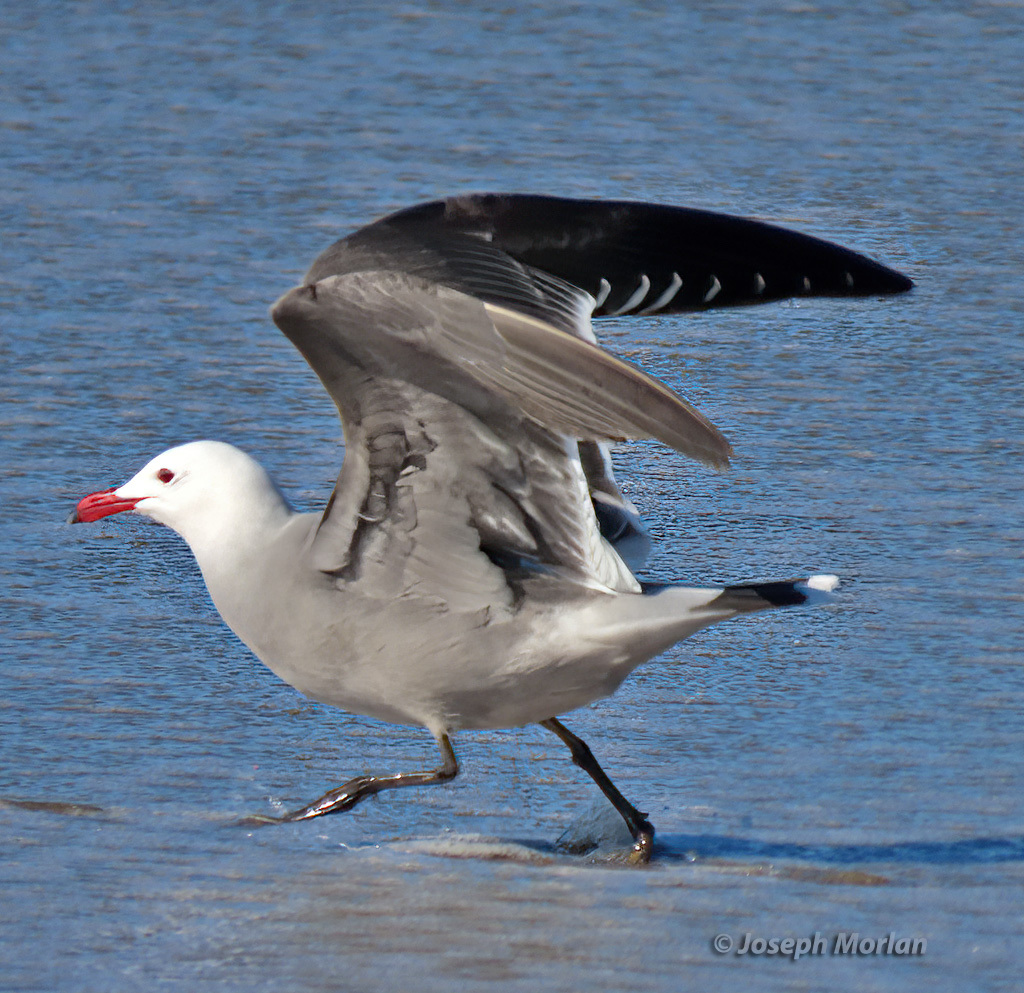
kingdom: Animalia
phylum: Chordata
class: Aves
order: Charadriiformes
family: Laridae
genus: Larus
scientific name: Larus heermanni
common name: Heermann's gull
